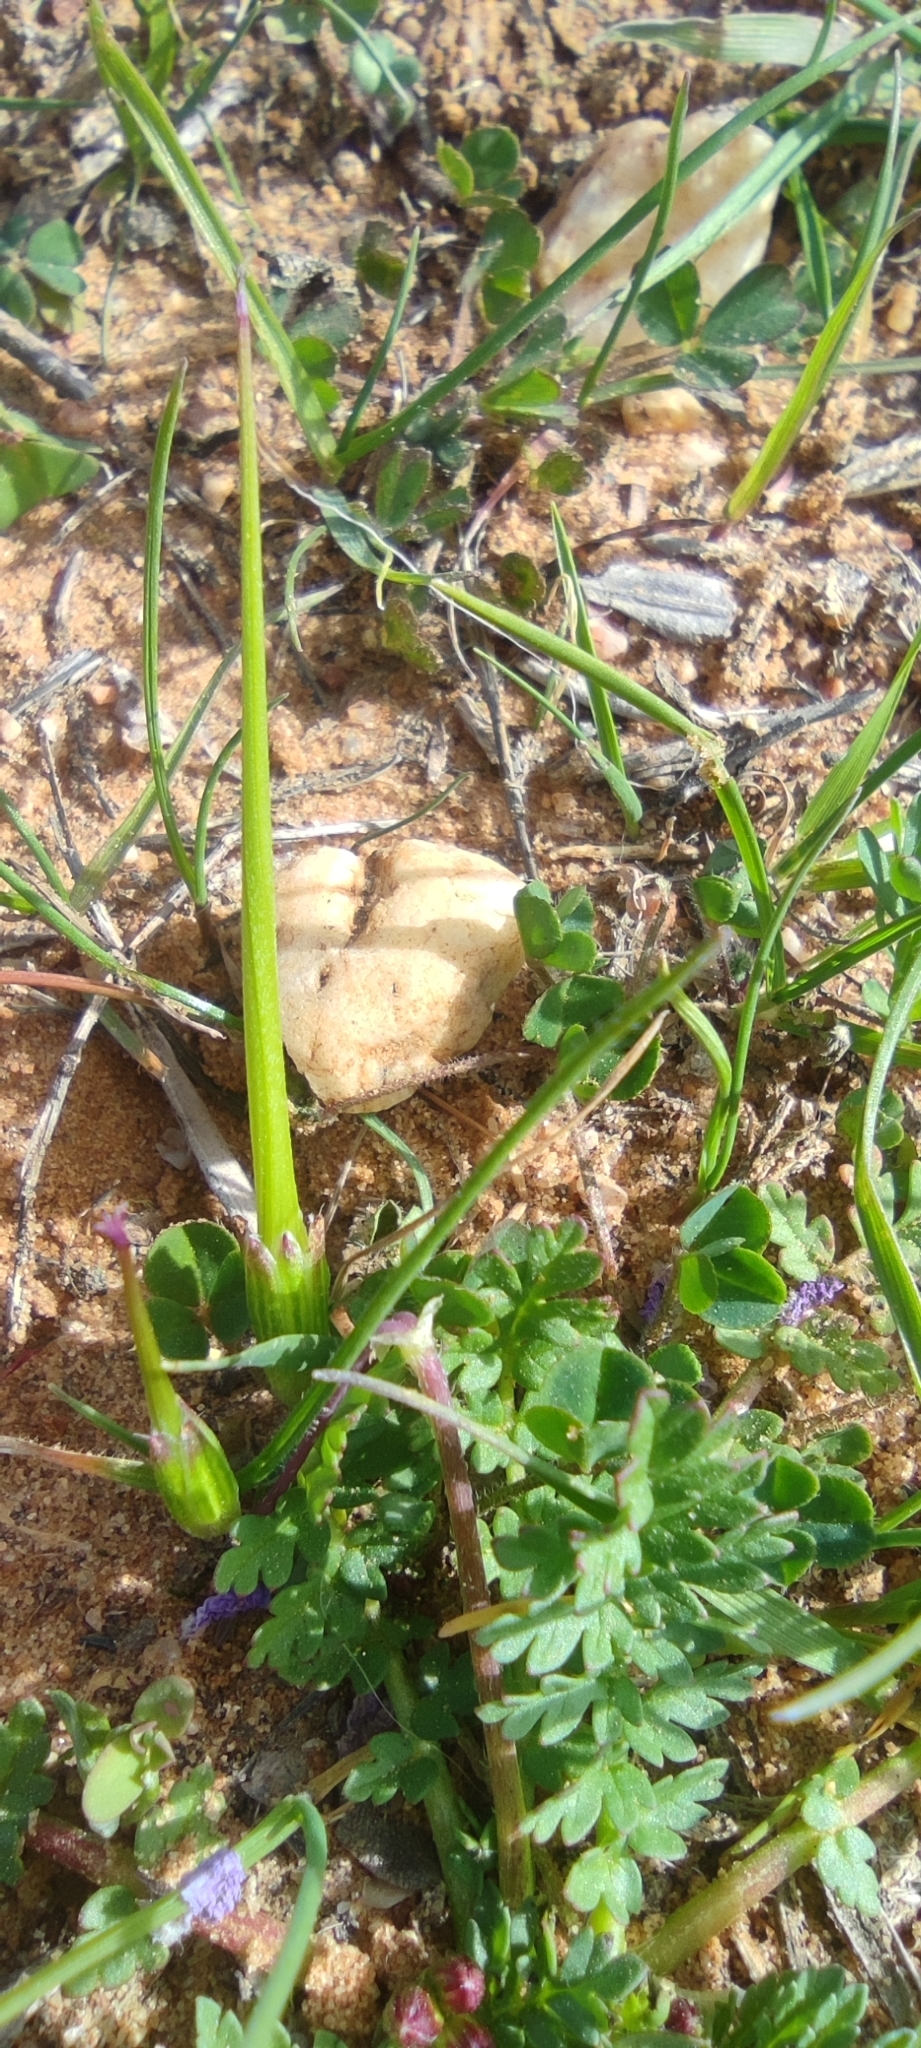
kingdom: Plantae
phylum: Tracheophyta
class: Magnoliopsida
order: Geraniales
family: Geraniaceae
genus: Erodium
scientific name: Erodium maculatum
